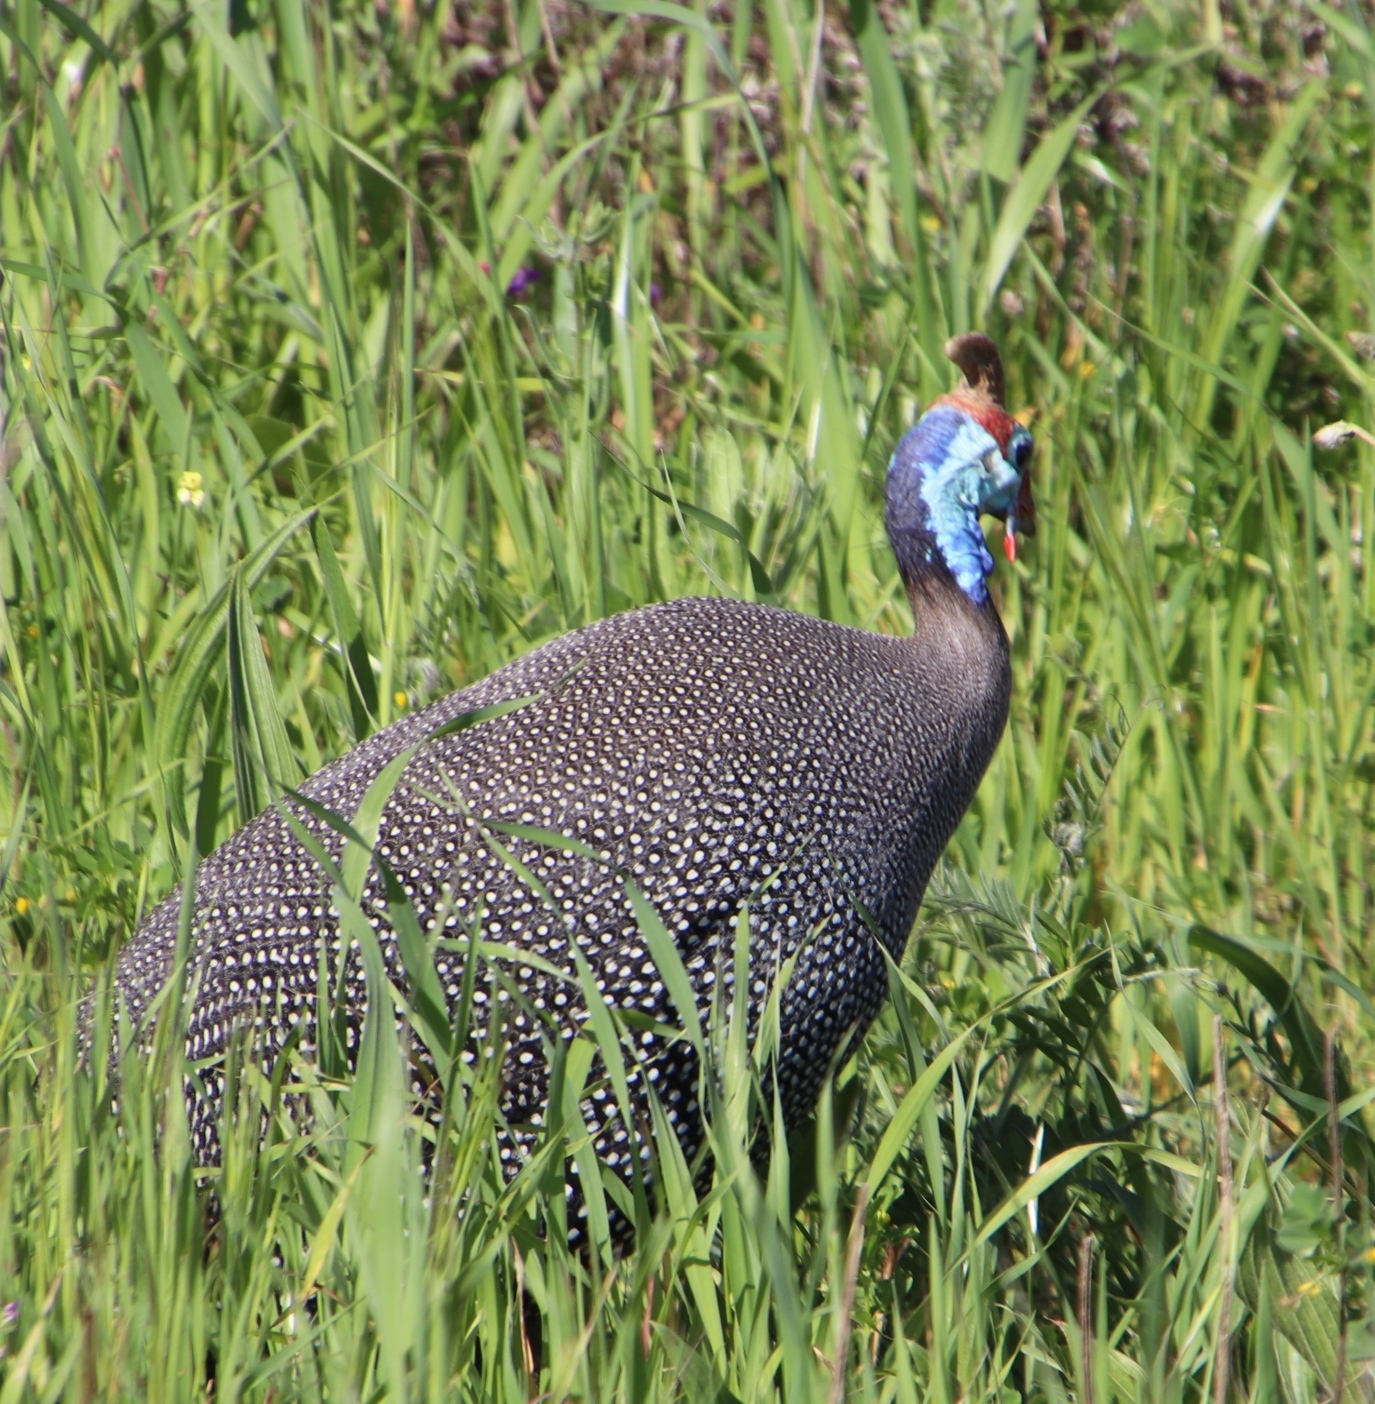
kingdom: Animalia
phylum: Chordata
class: Aves
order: Galliformes
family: Numididae
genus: Numida
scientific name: Numida meleagris
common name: Helmeted guineafowl
